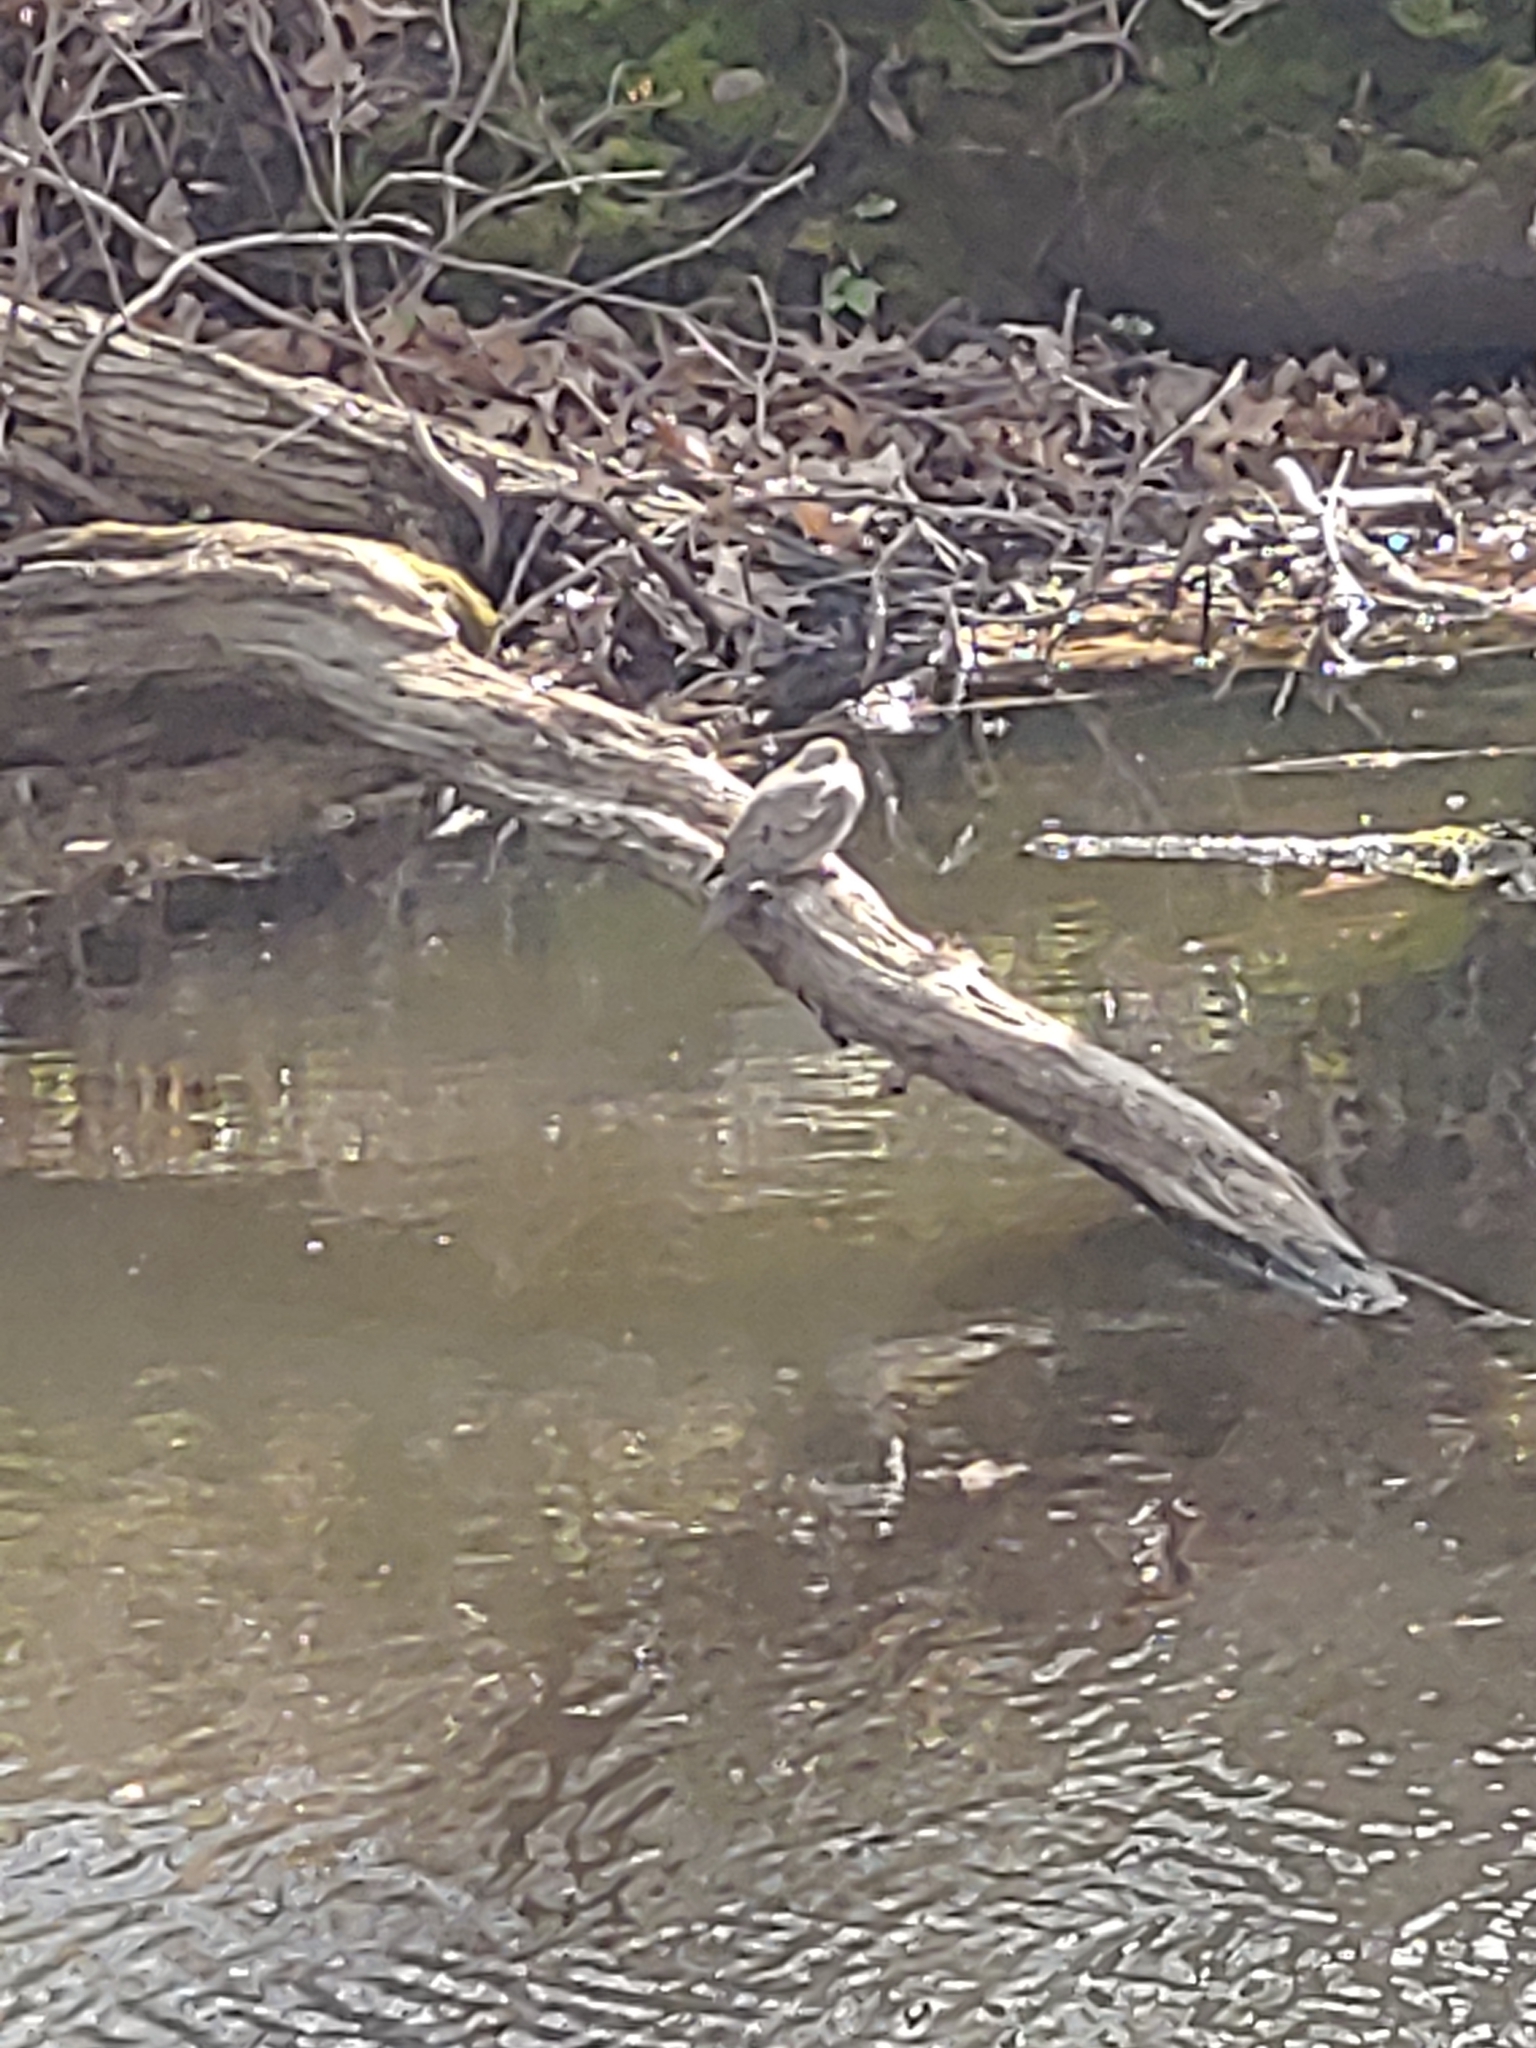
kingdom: Animalia
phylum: Chordata
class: Aves
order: Columbiformes
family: Columbidae
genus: Zenaida
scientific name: Zenaida macroura
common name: Mourning dove
